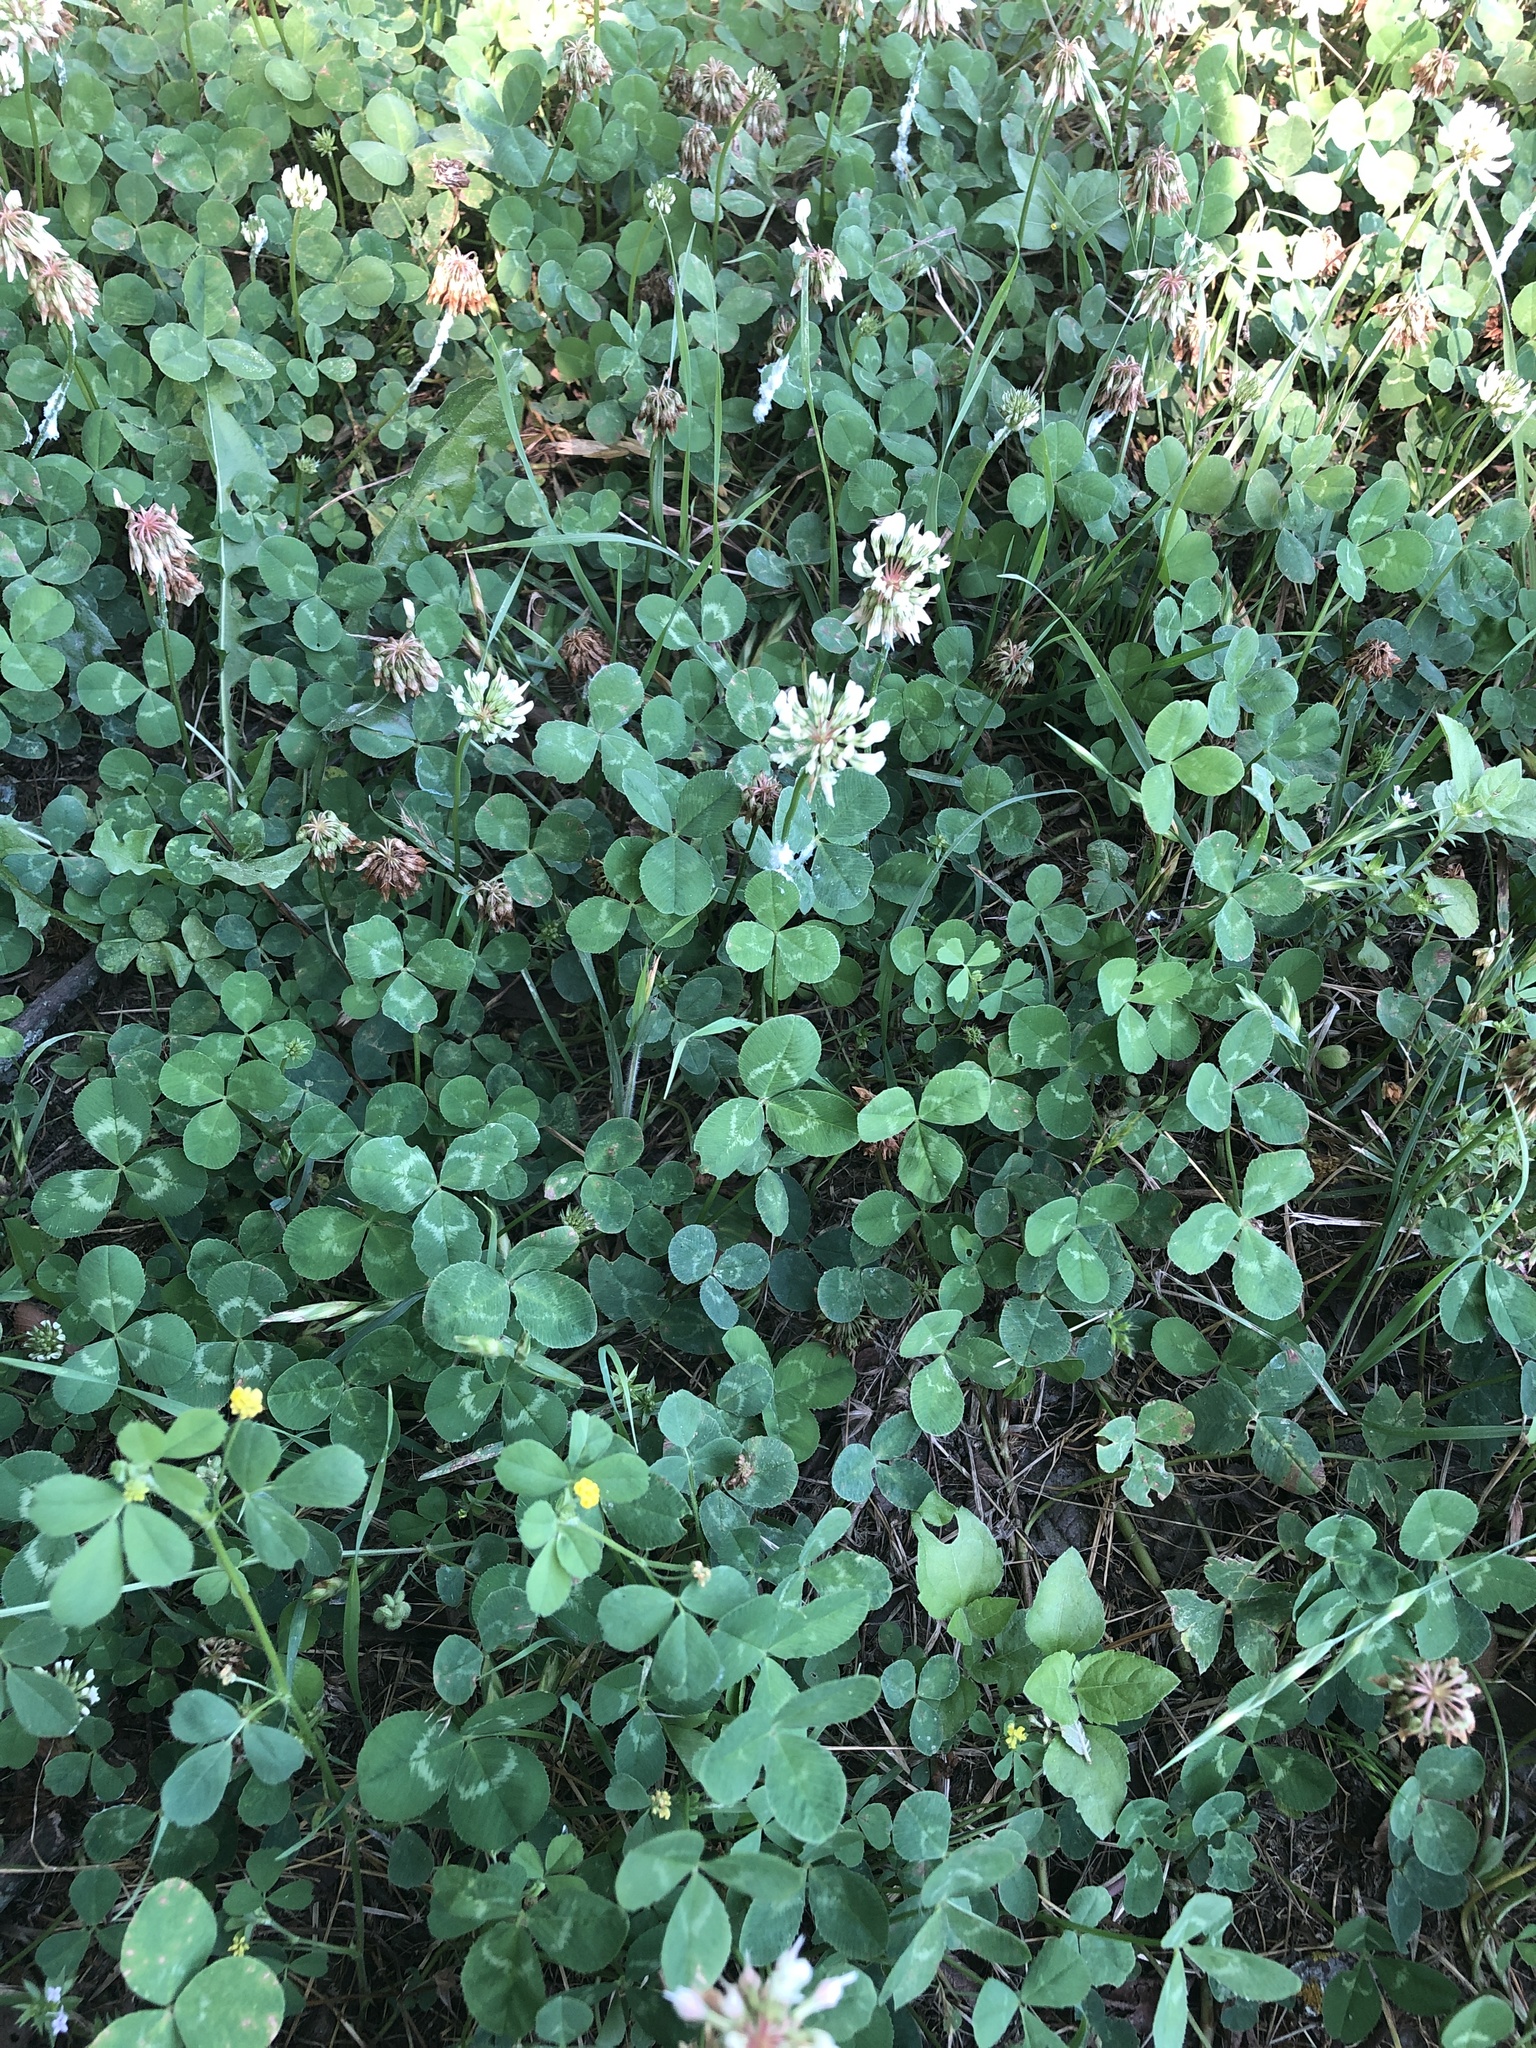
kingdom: Plantae
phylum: Tracheophyta
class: Magnoliopsida
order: Fabales
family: Fabaceae
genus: Trifolium
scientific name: Trifolium repens
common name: White clover
